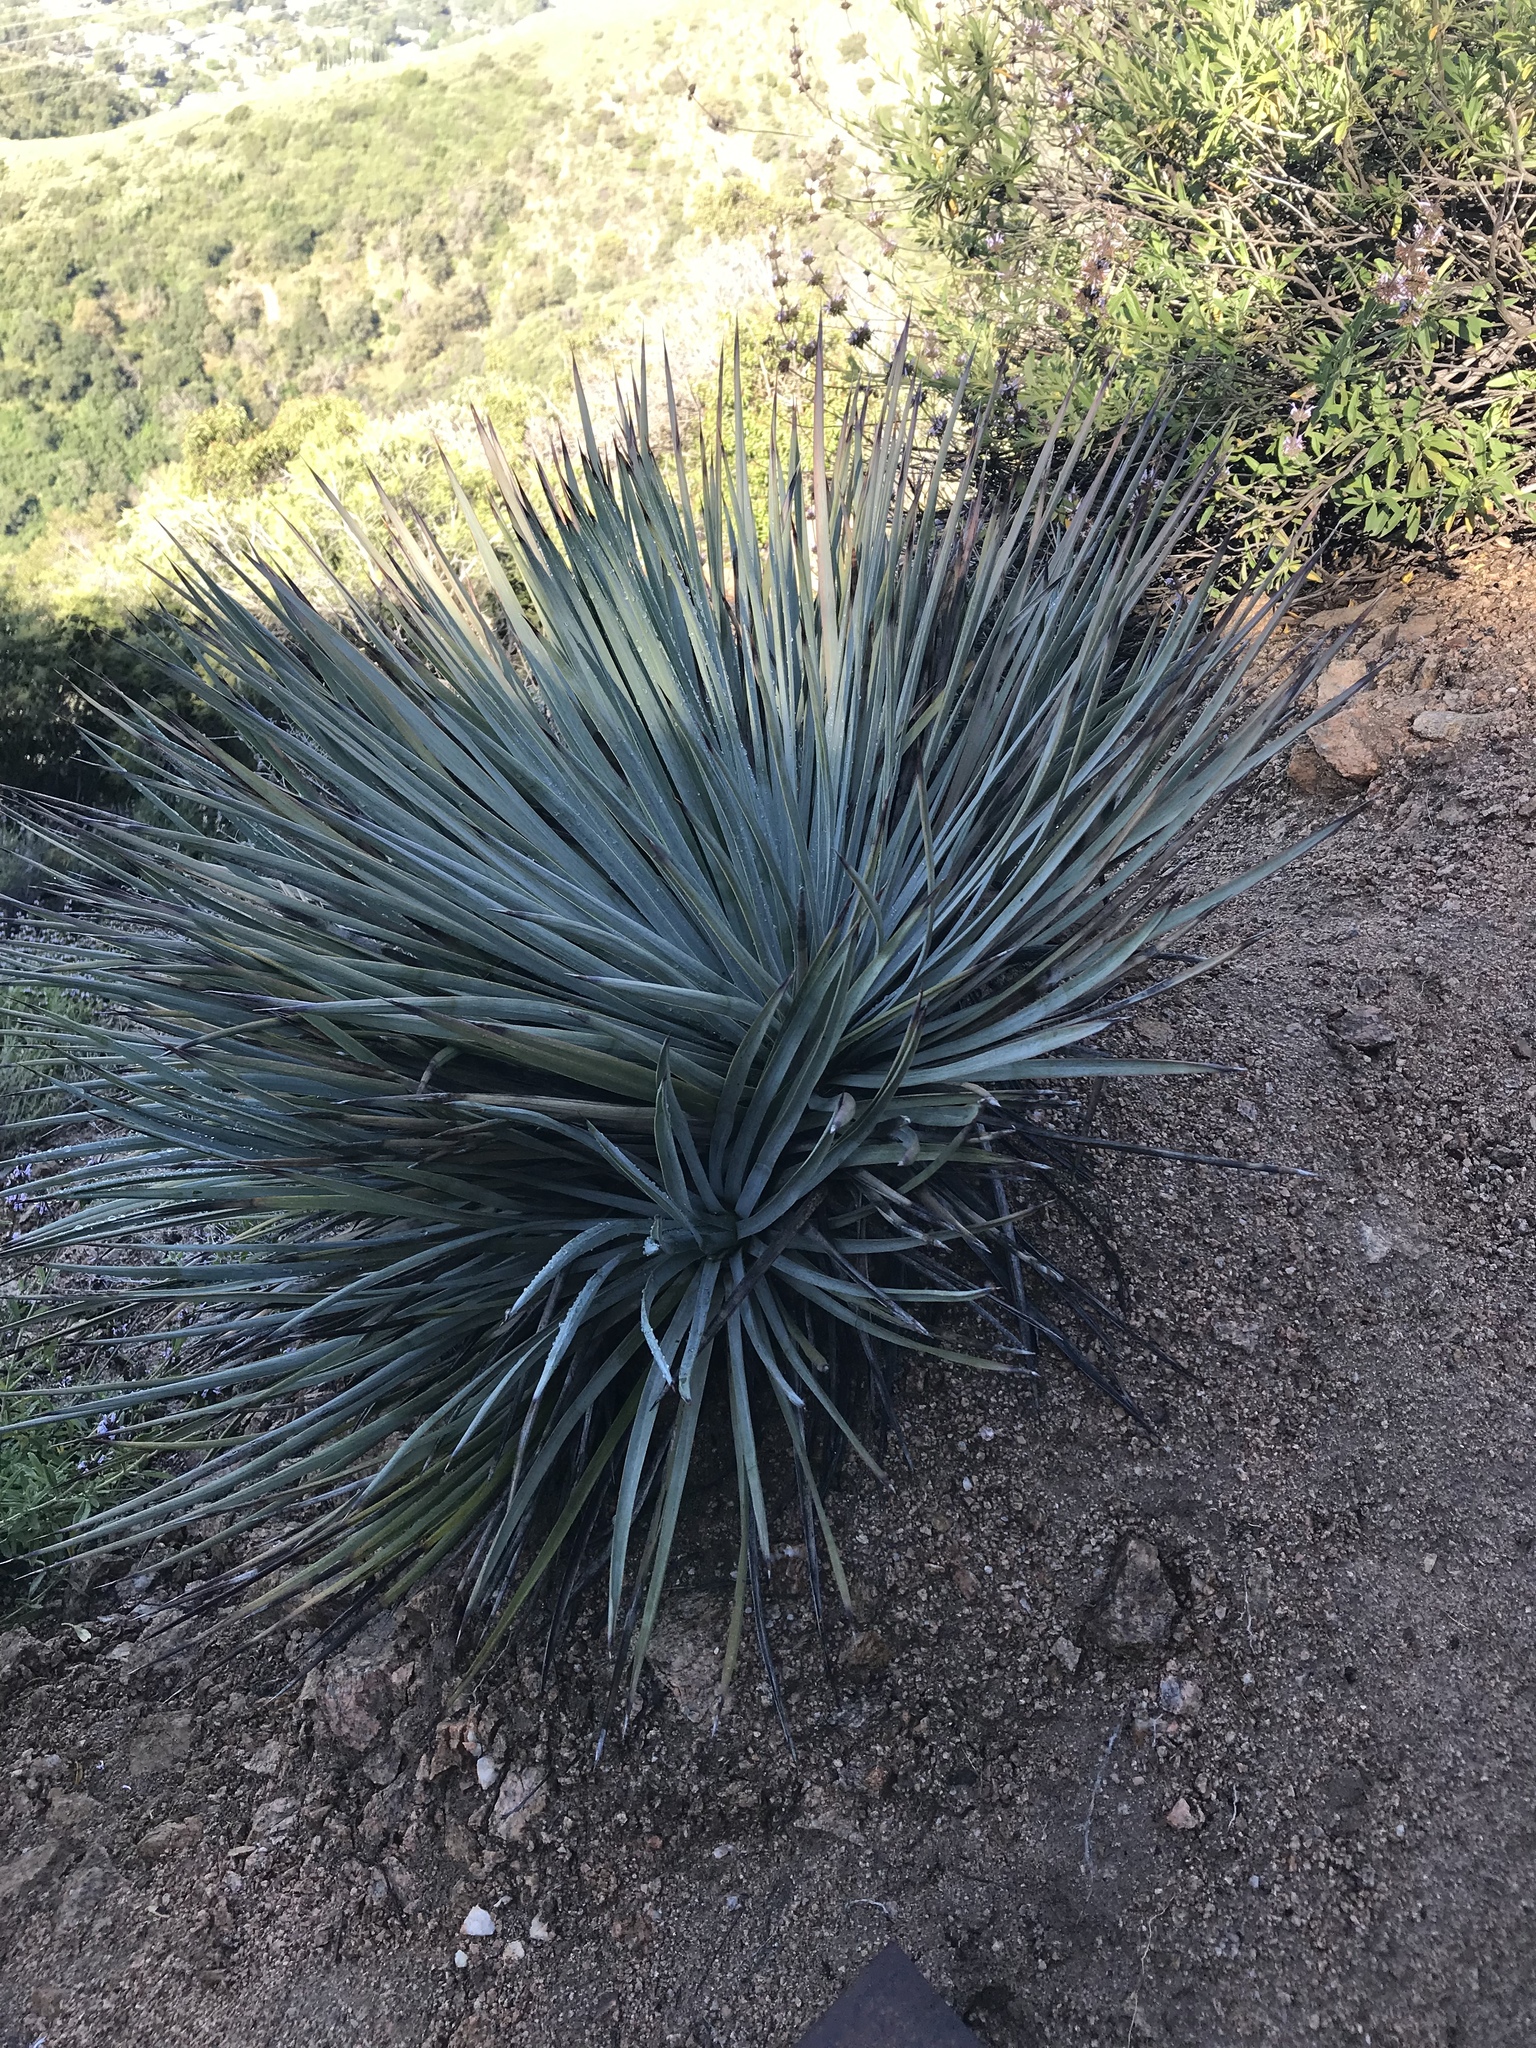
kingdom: Plantae
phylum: Tracheophyta
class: Liliopsida
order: Asparagales
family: Asparagaceae
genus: Hesperoyucca
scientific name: Hesperoyucca whipplei
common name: Our lord's-candle
